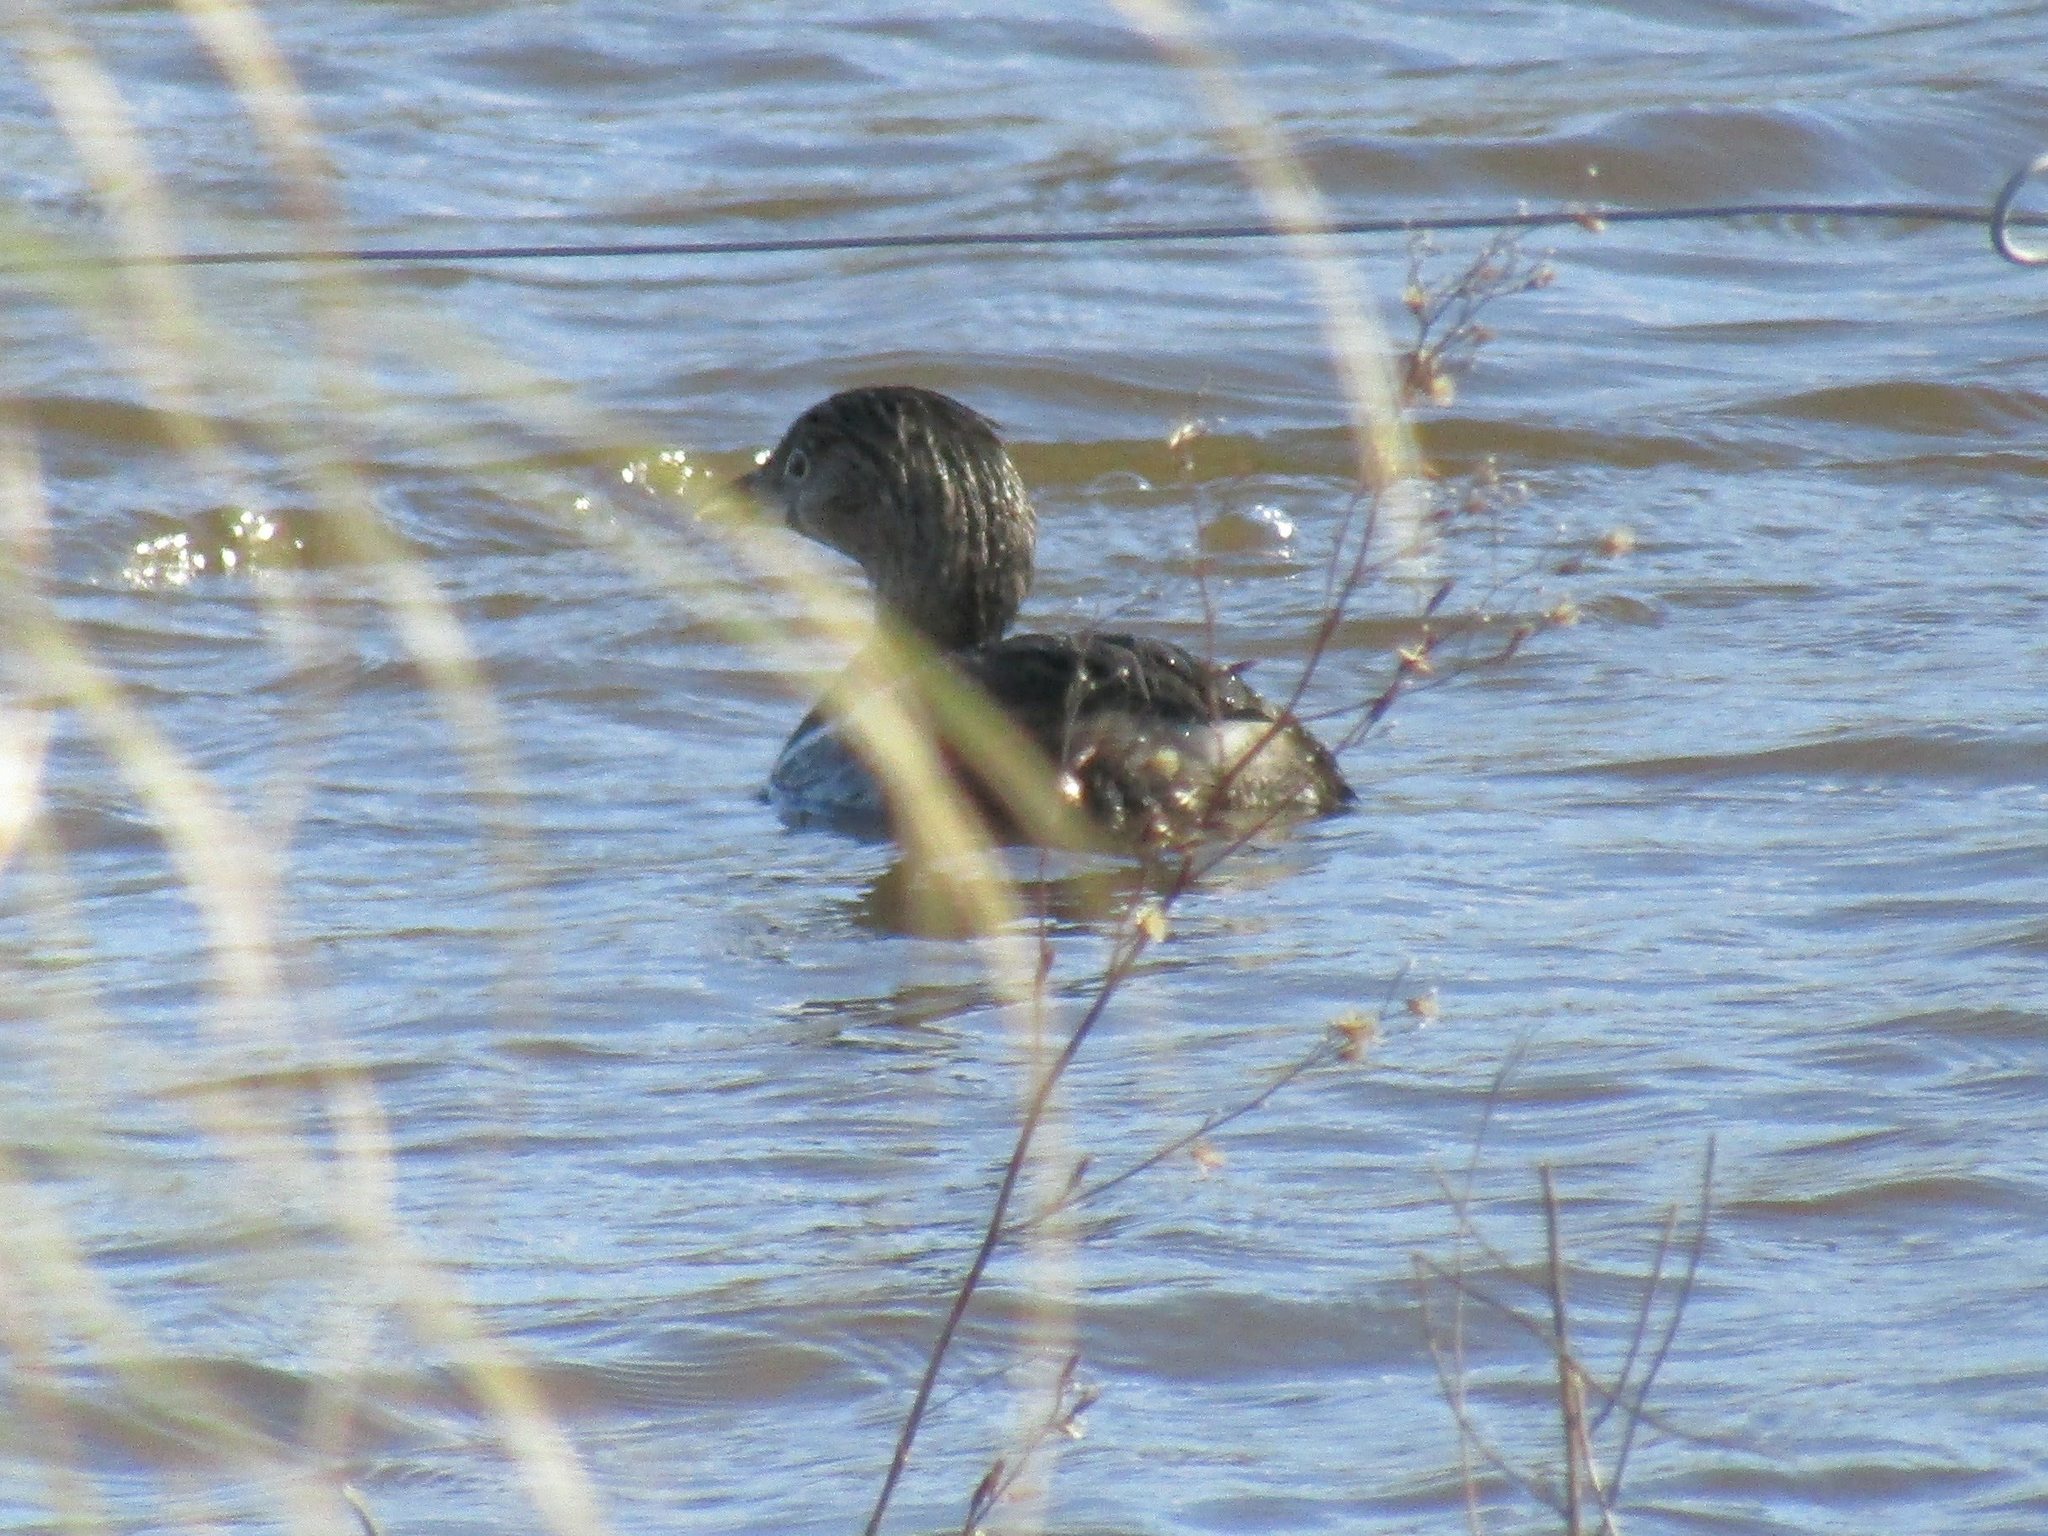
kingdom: Animalia
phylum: Chordata
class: Aves
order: Podicipediformes
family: Podicipedidae
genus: Podilymbus
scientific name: Podilymbus podiceps
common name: Pied-billed grebe
